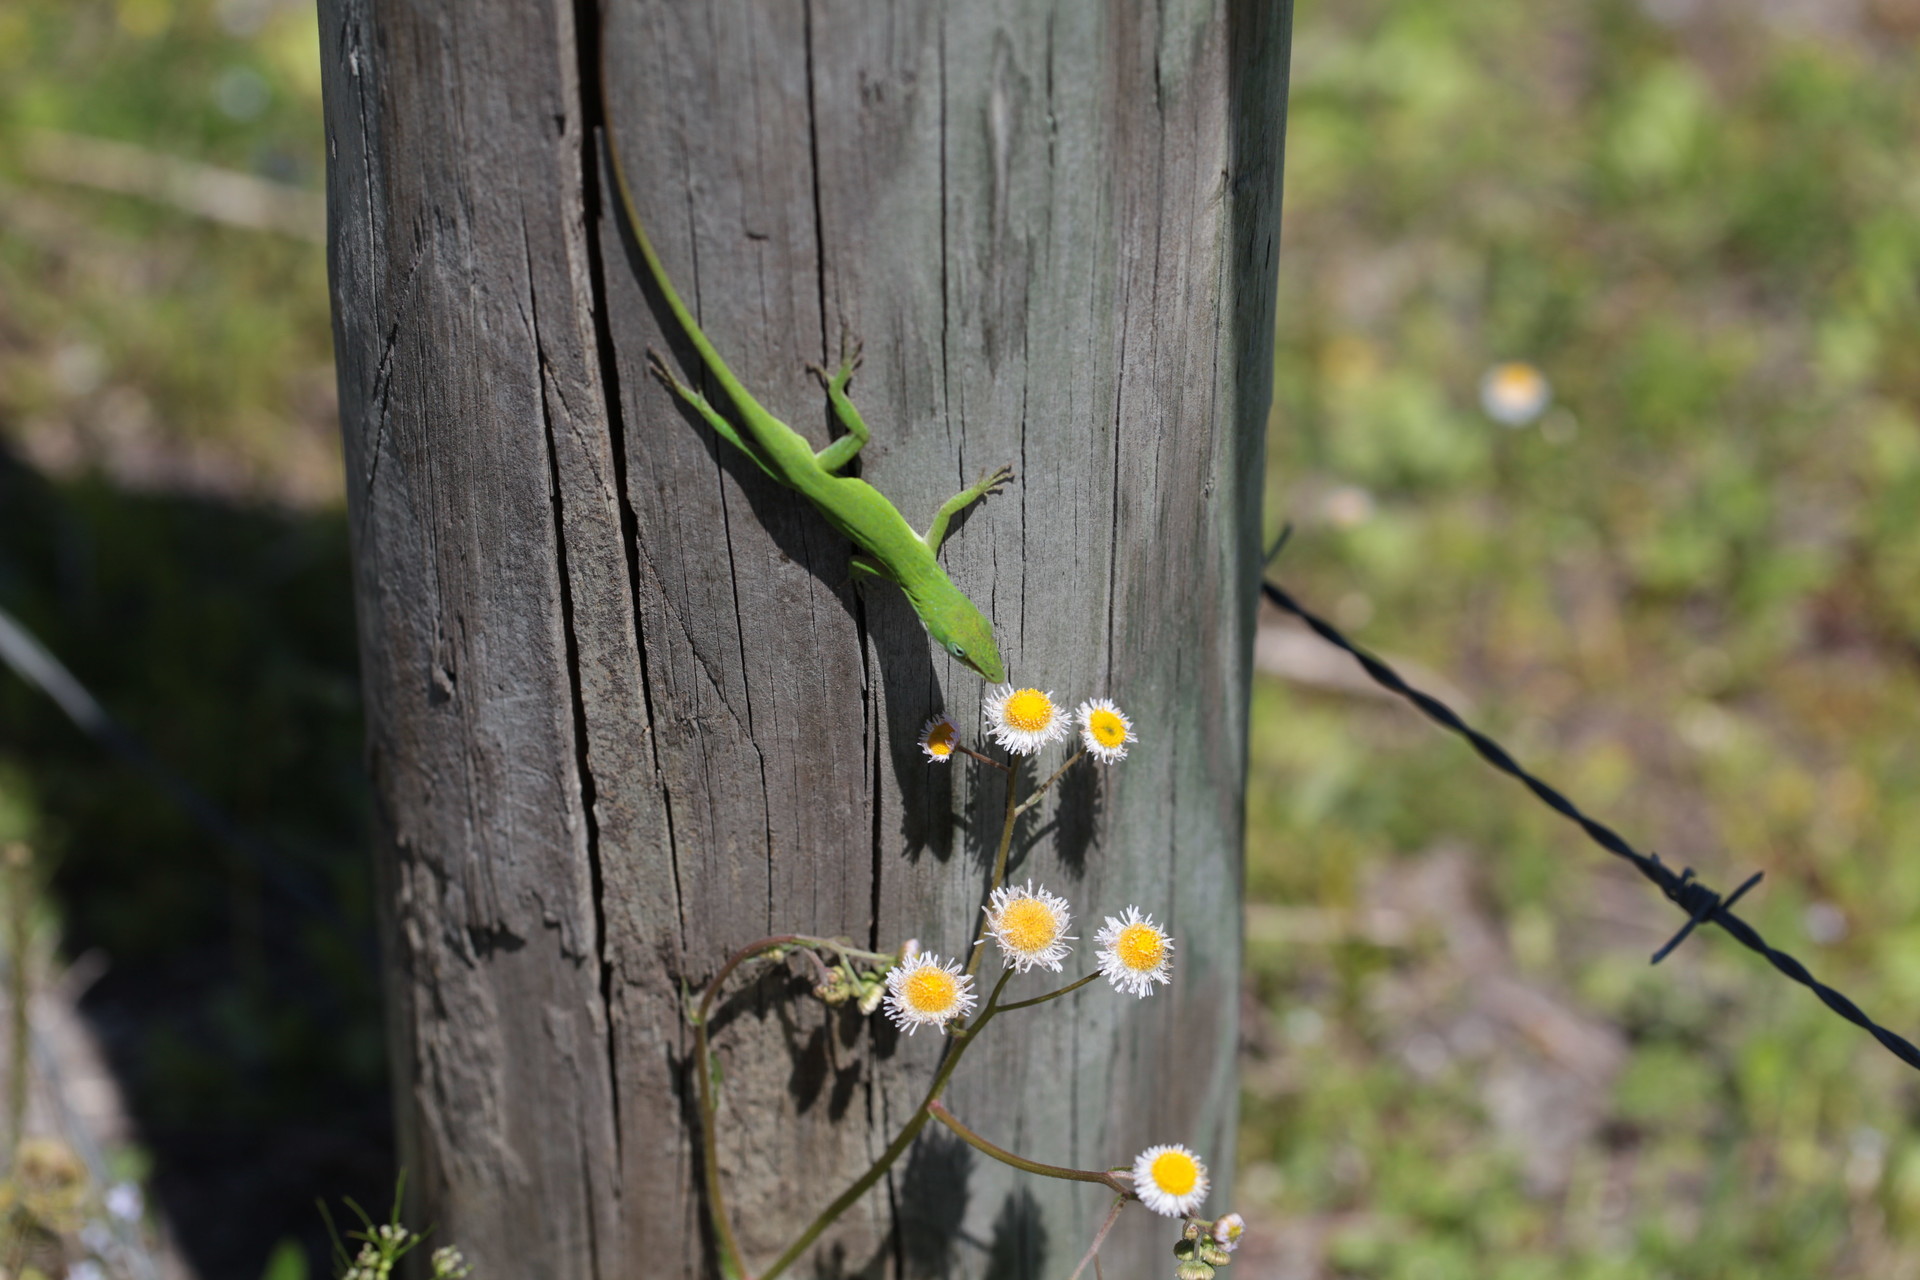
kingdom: Animalia
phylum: Chordata
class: Squamata
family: Dactyloidae
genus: Anolis
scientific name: Anolis carolinensis
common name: Green anole
